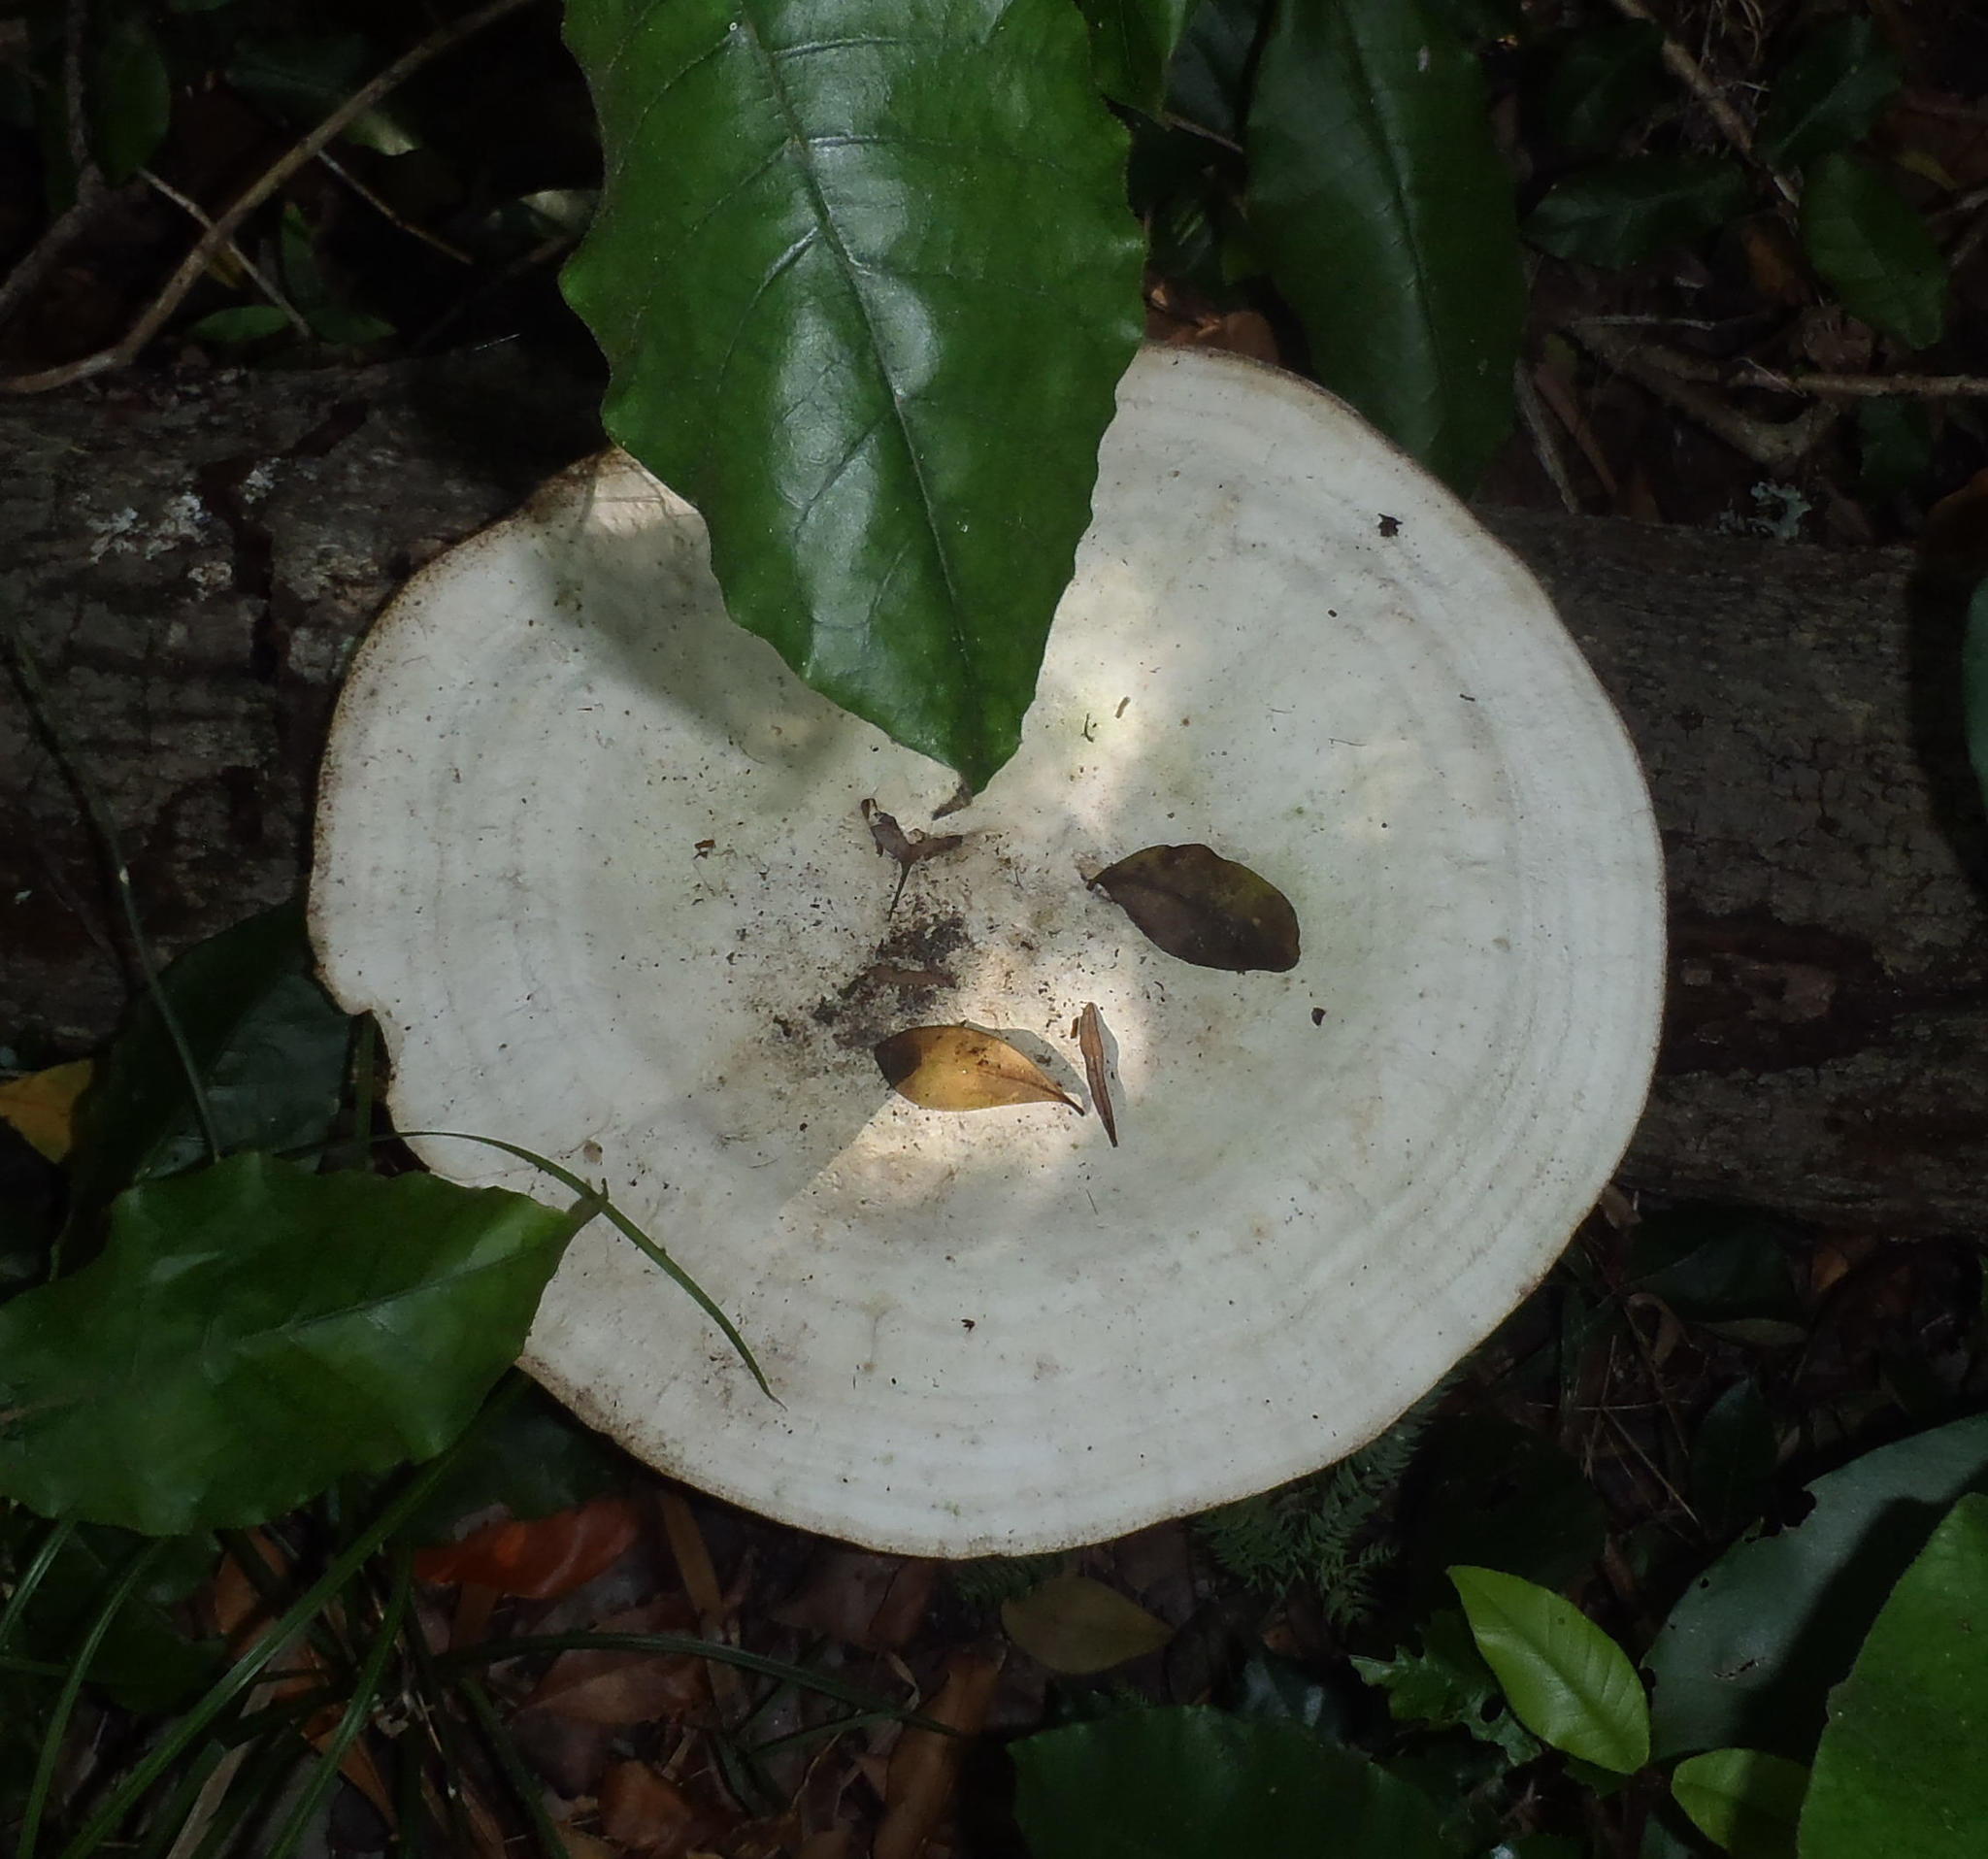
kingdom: Fungi
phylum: Basidiomycota
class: Agaricomycetes
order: Polyporales
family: Polyporaceae
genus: Trametes
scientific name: Trametes elegans
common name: White maze polypore
